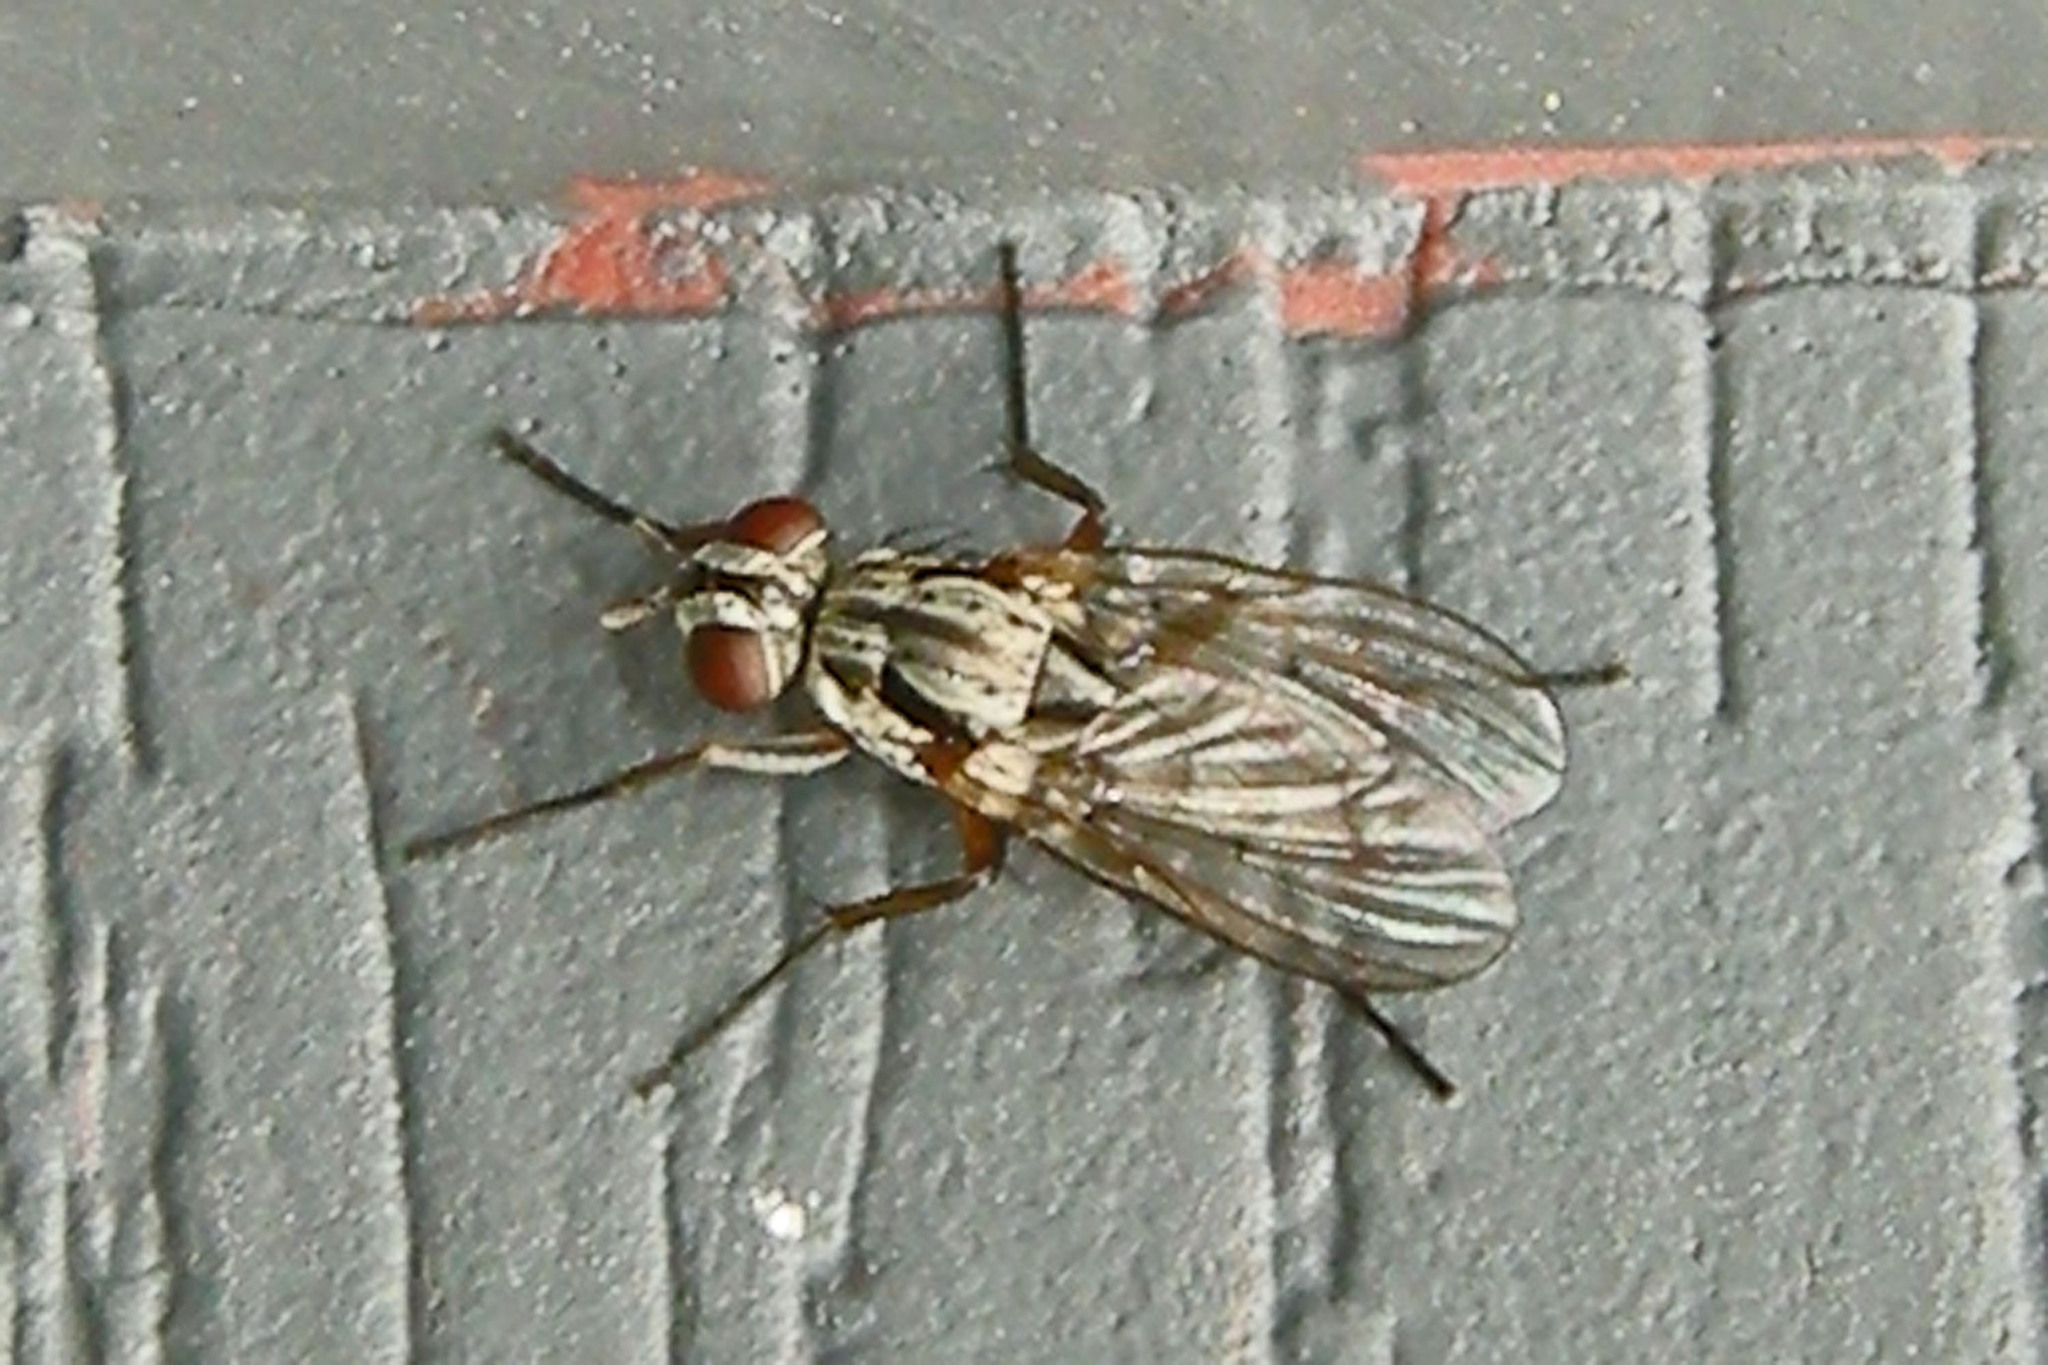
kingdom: Animalia
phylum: Arthropoda
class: Insecta
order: Diptera
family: Anthomyiidae
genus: Eustalomyia
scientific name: Eustalomyia vittipes
